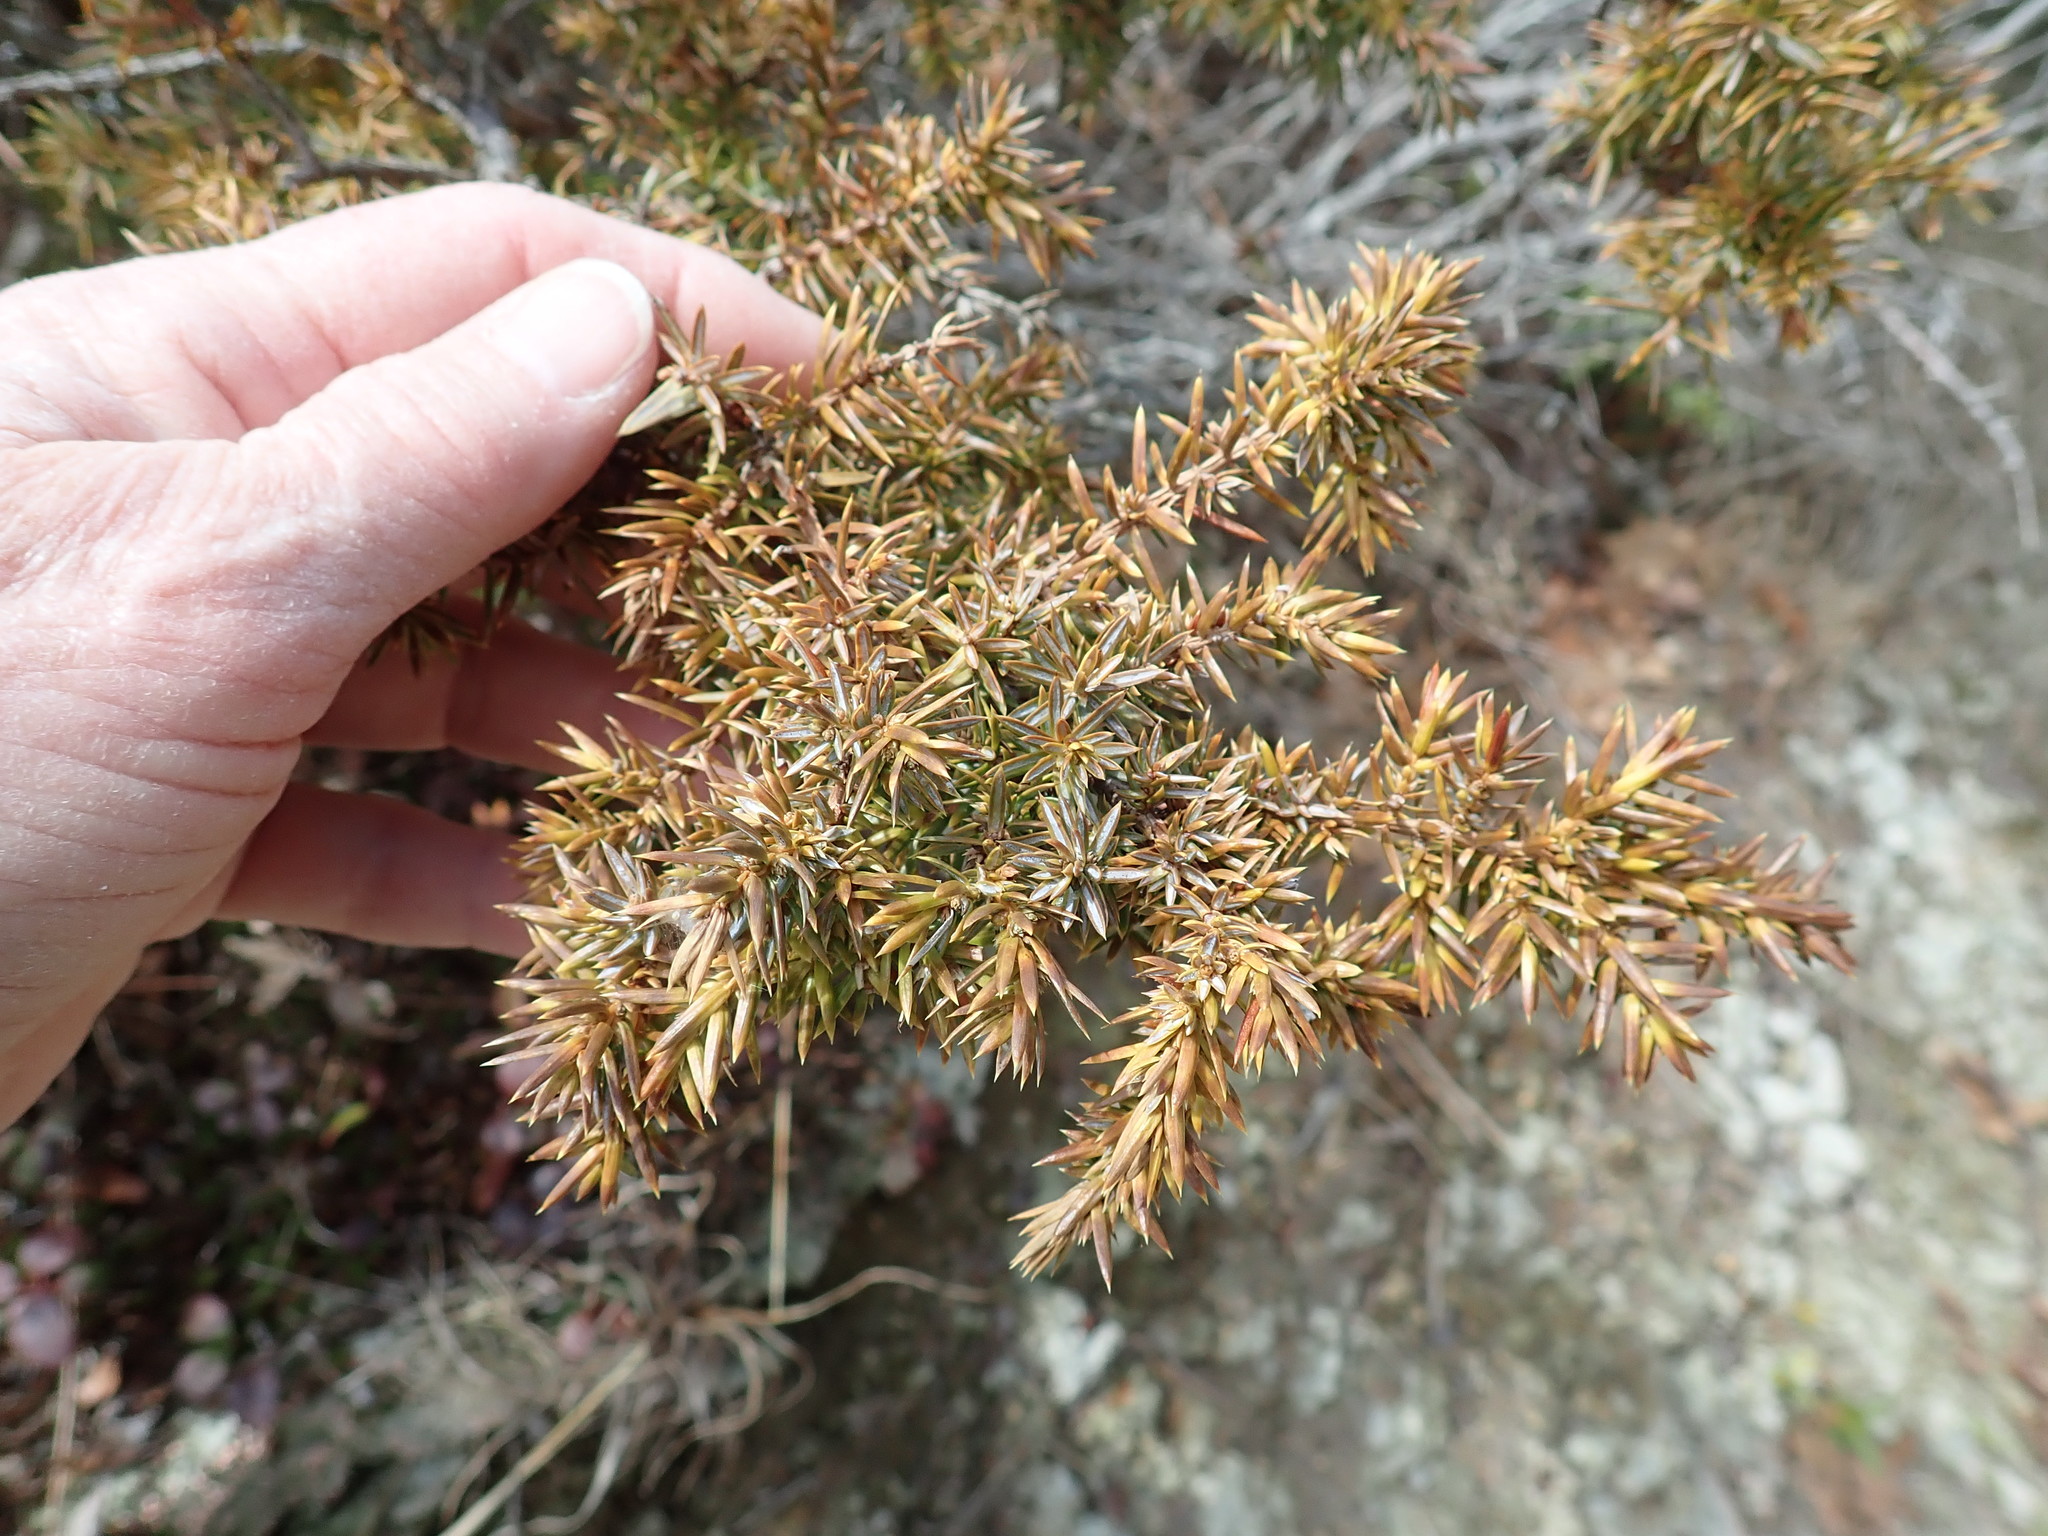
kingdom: Plantae
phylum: Tracheophyta
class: Pinopsida
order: Pinales
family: Cupressaceae
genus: Juniperus
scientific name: Juniperus communis
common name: Common juniper
